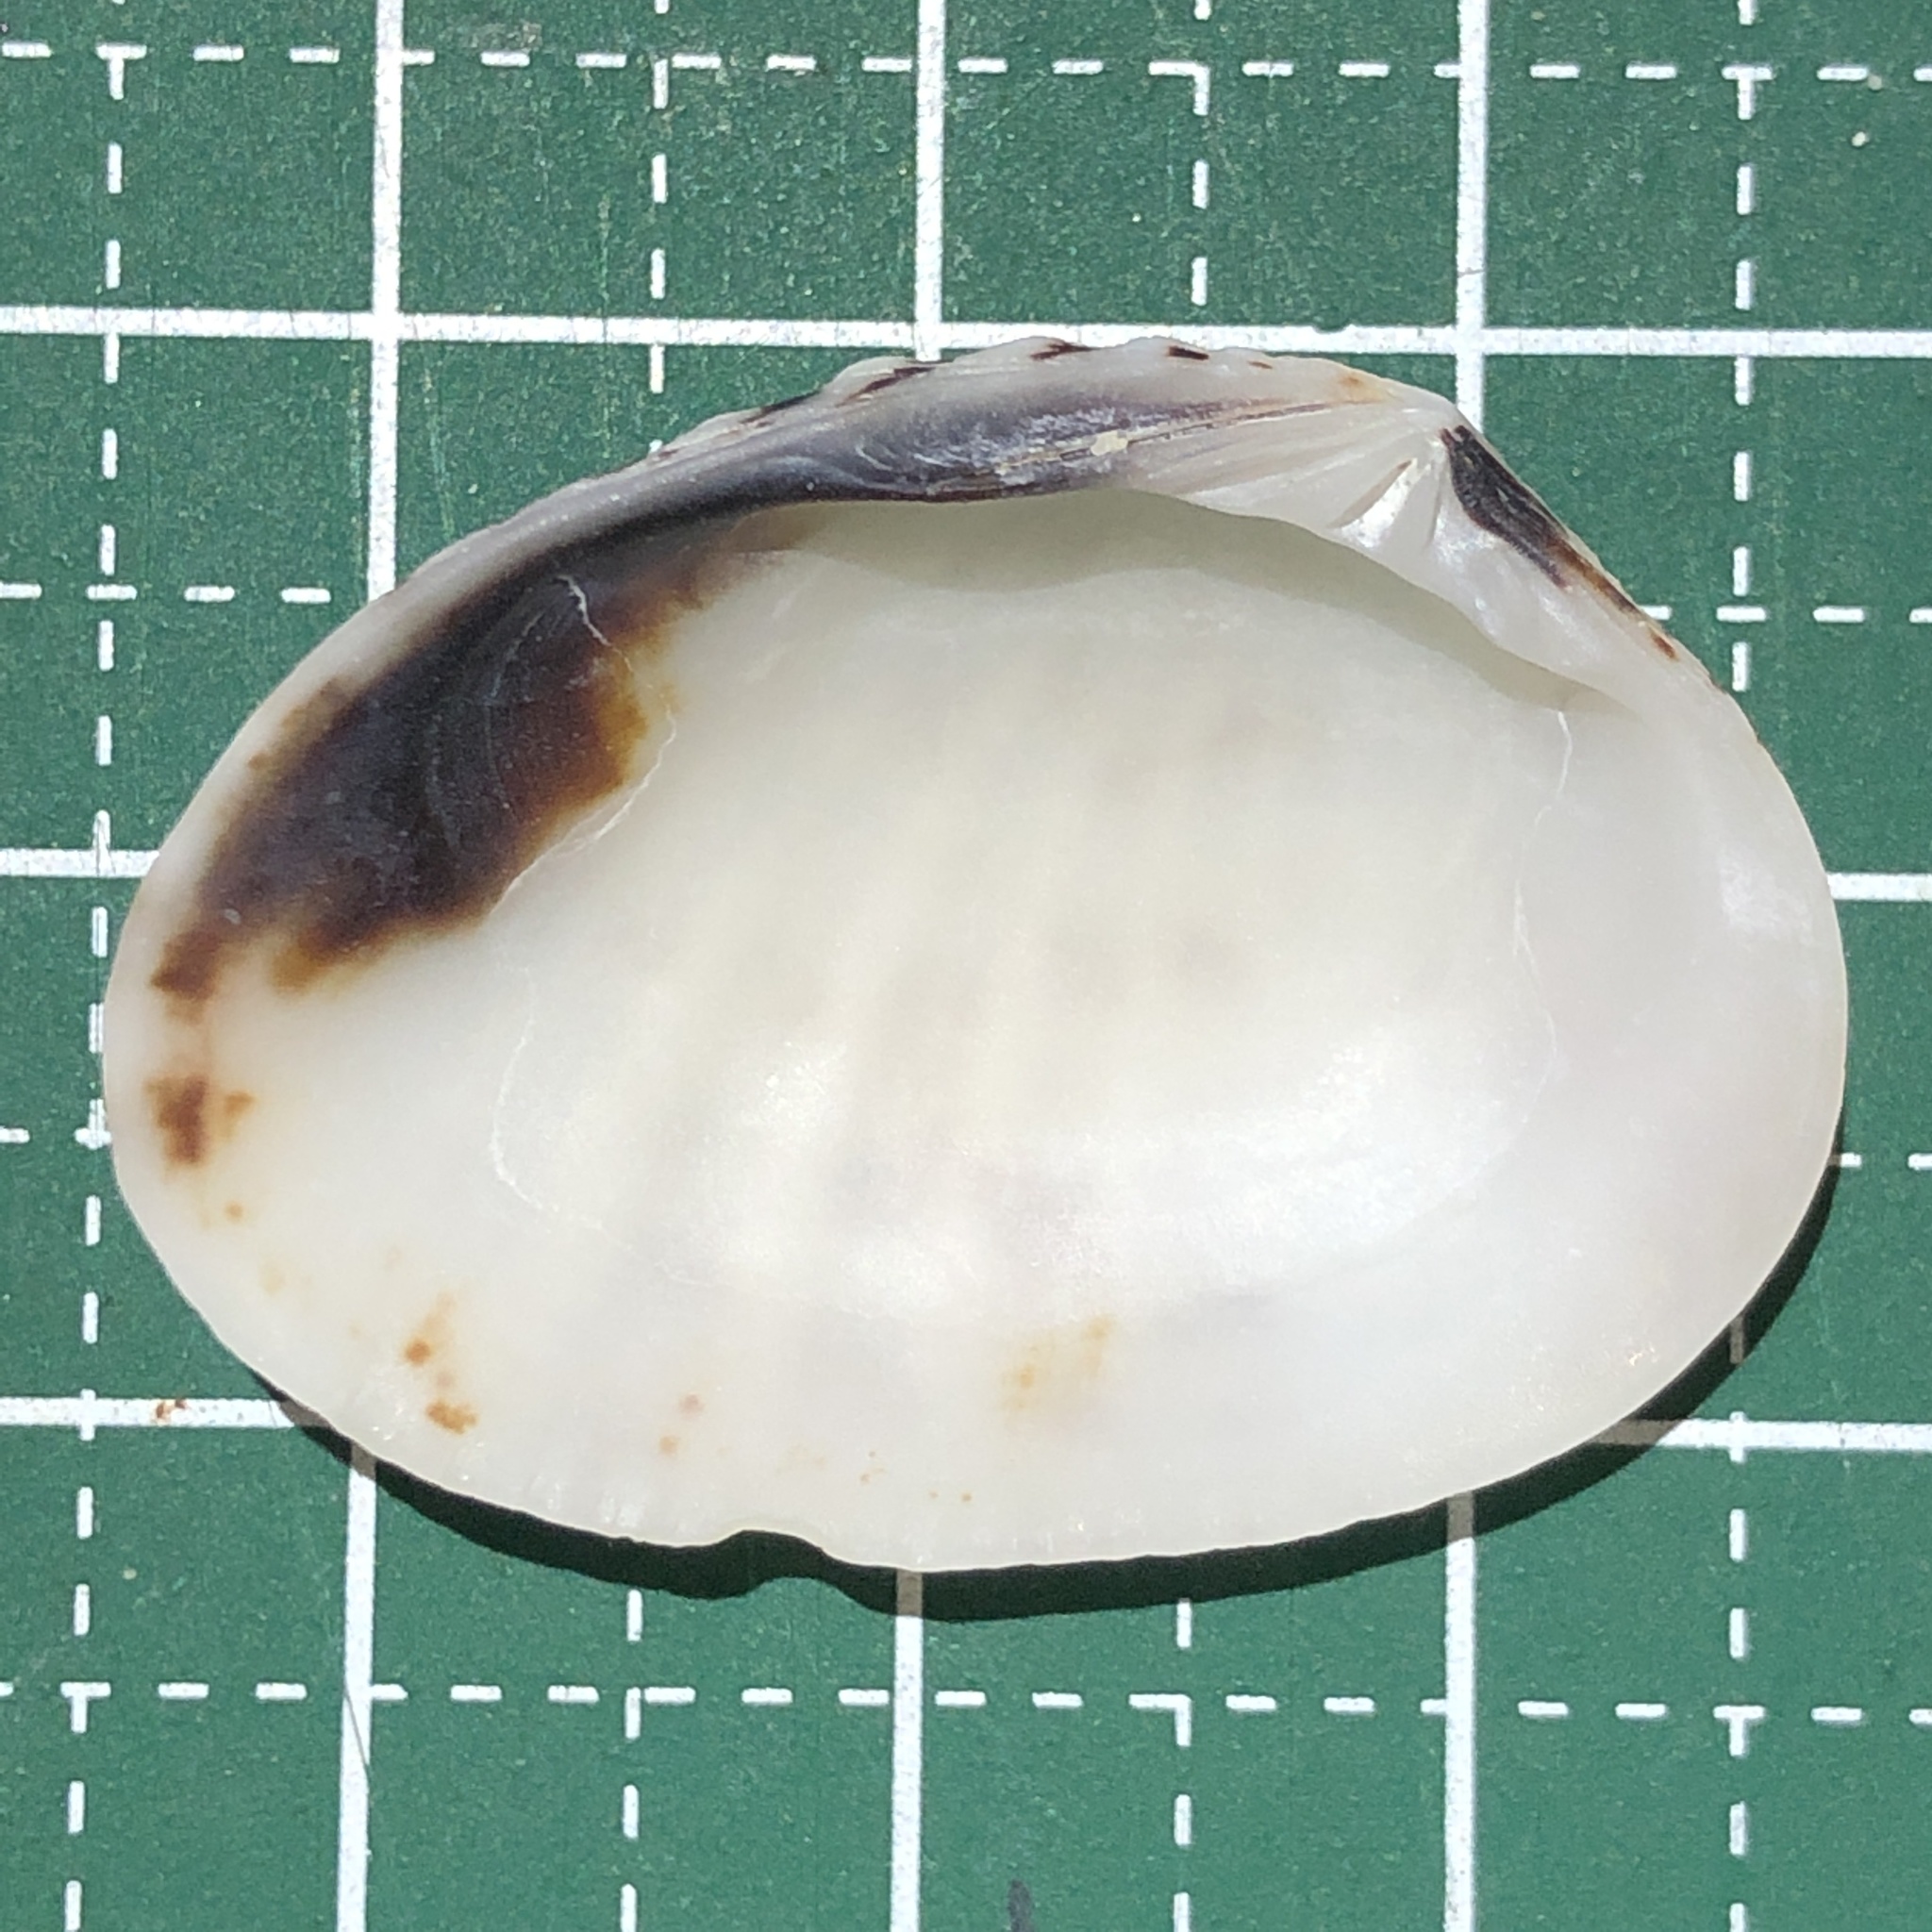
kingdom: Animalia
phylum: Mollusca
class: Bivalvia
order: Venerida
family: Veneridae
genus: Gafrarium
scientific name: Gafrarium pectinatum
